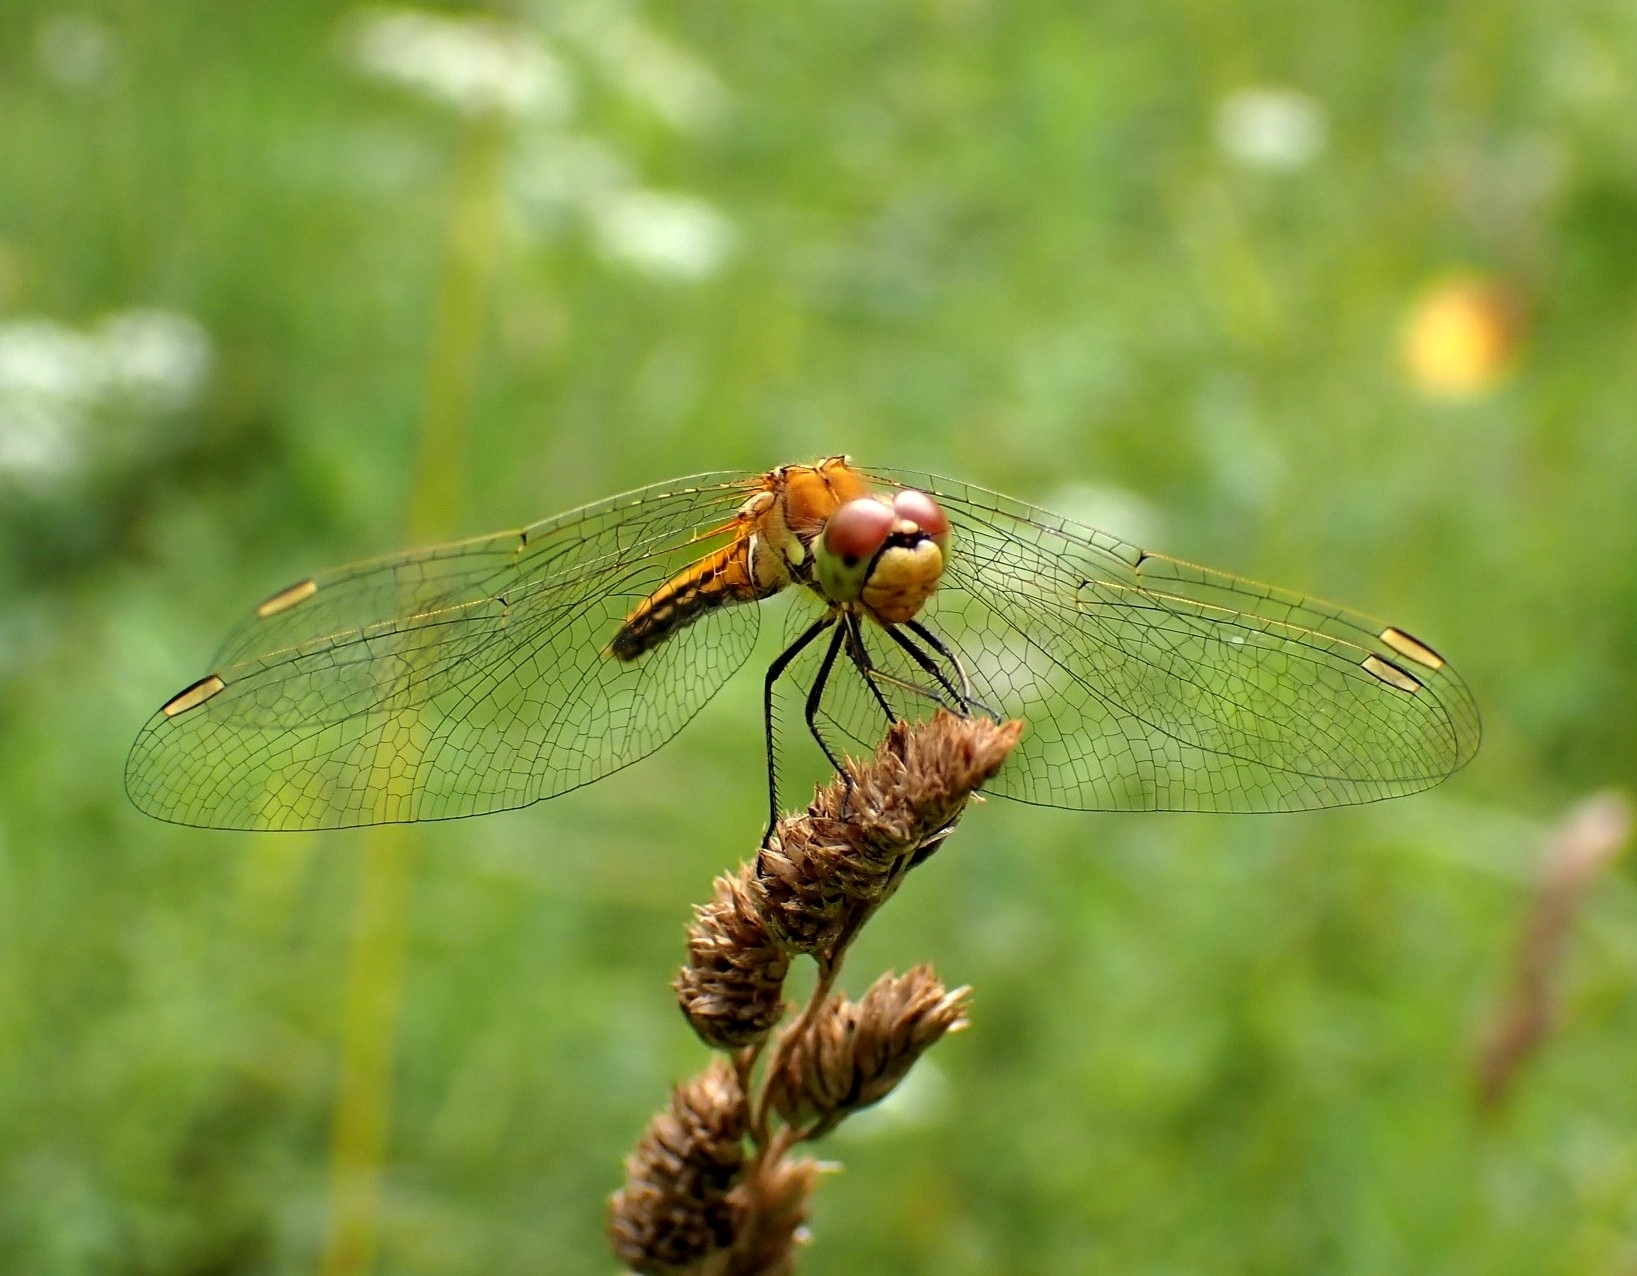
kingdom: Animalia
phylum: Arthropoda
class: Insecta
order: Odonata
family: Libellulidae
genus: Sympetrum
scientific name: Sympetrum flaveolum
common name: Yellow-winged darter
